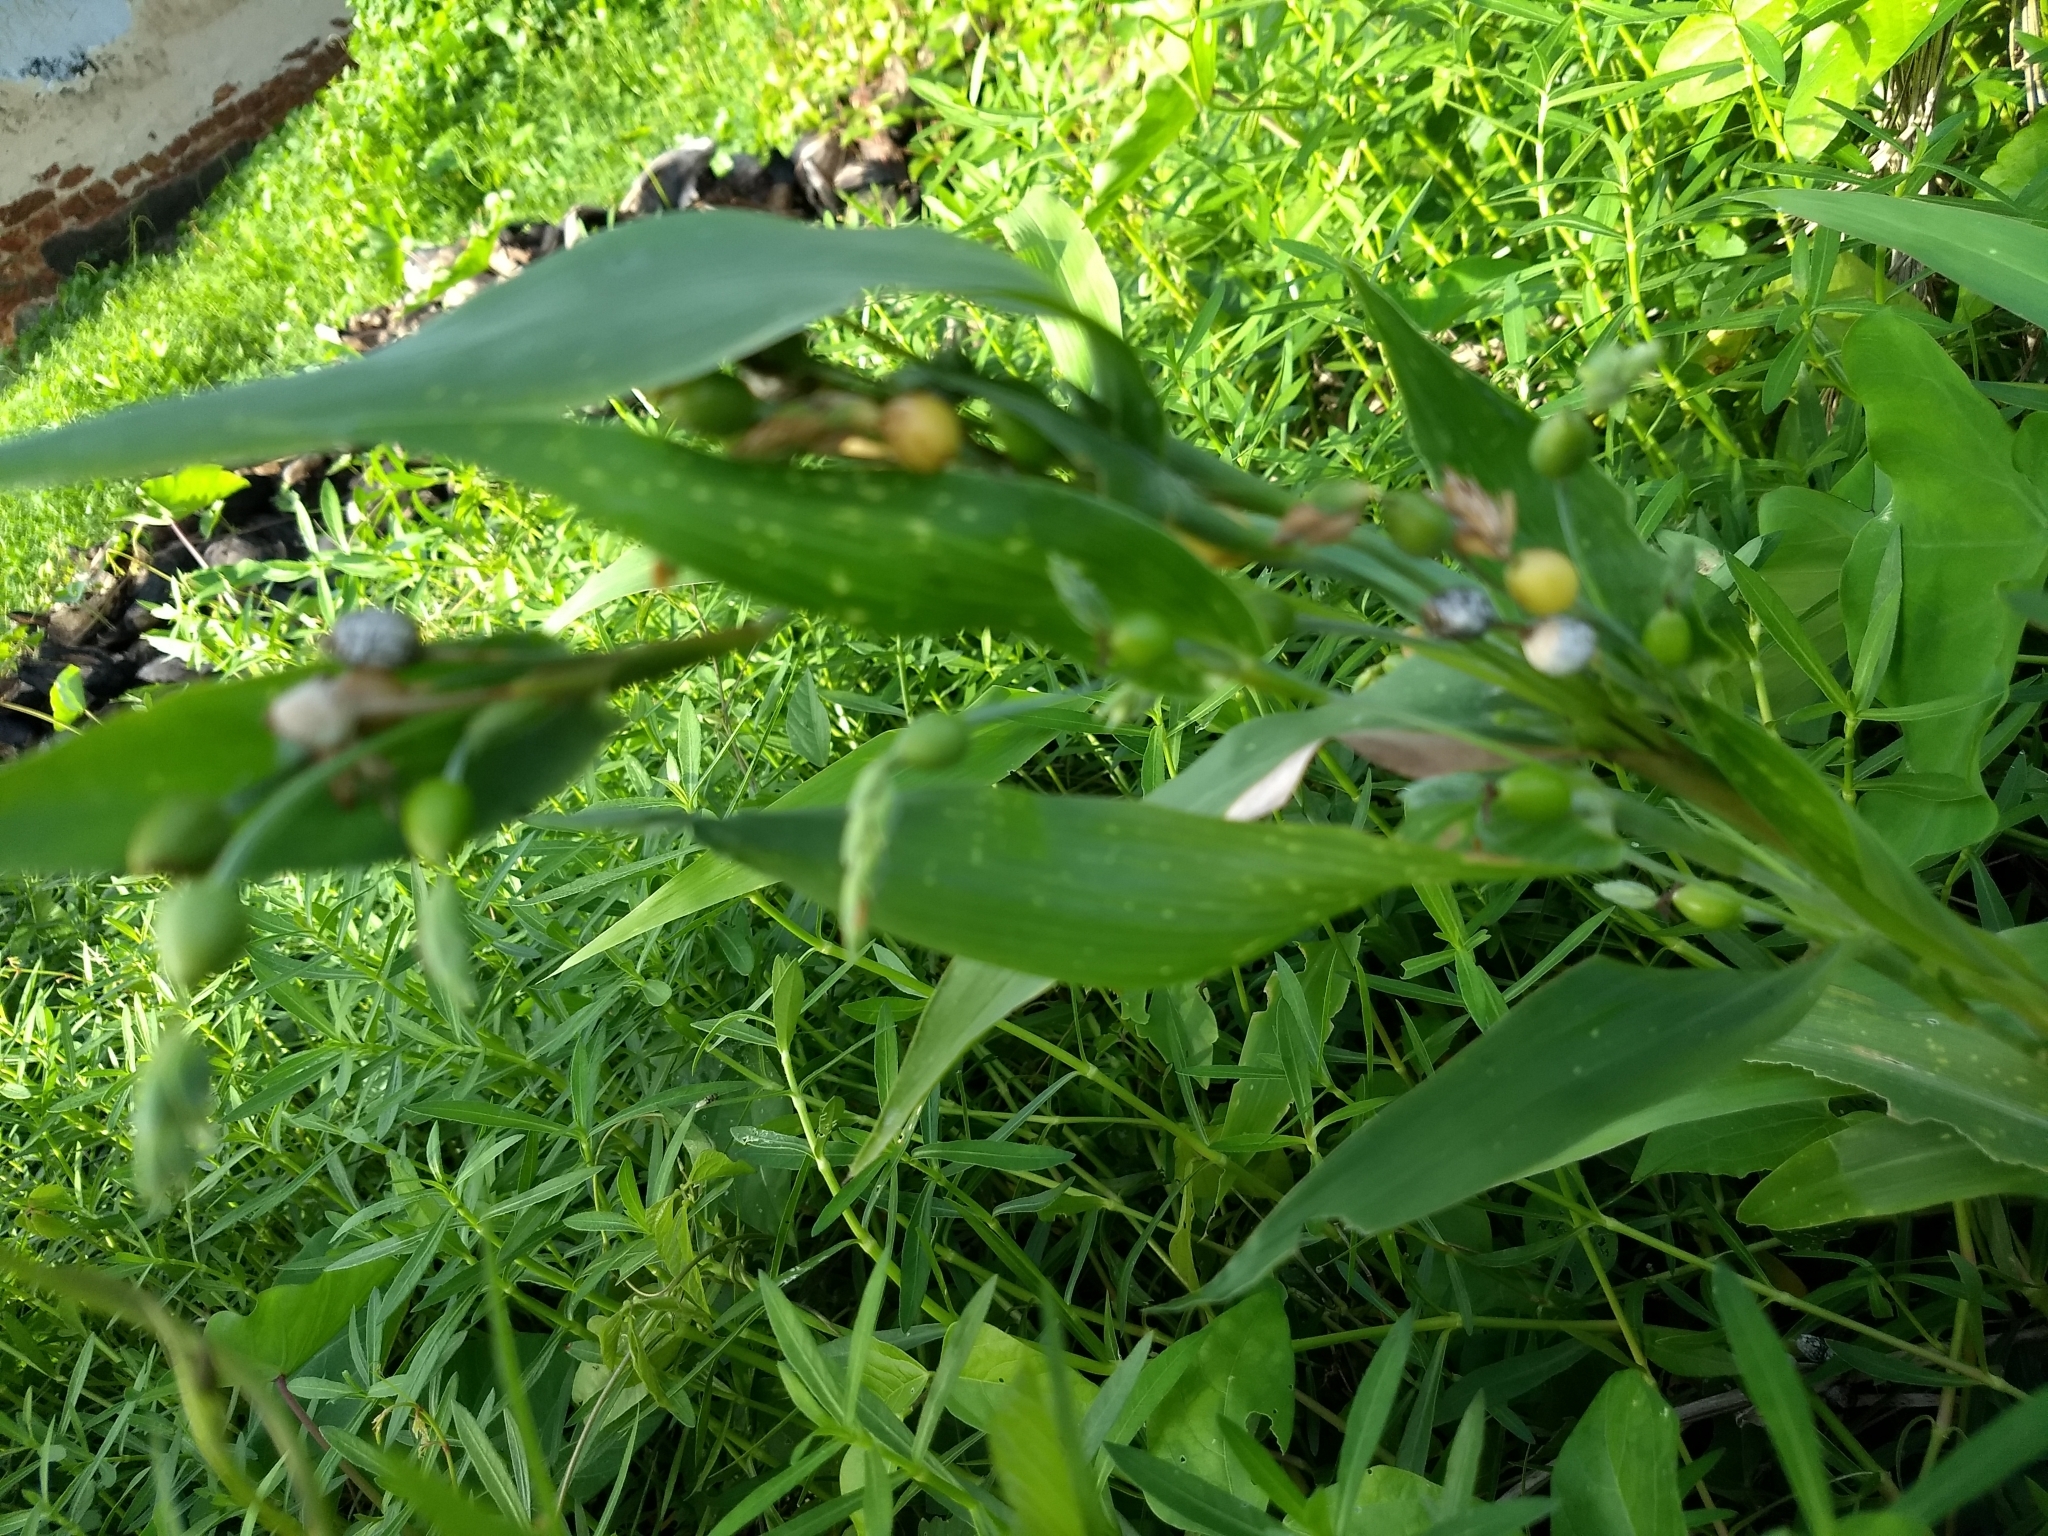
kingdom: Plantae
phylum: Tracheophyta
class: Liliopsida
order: Poales
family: Poaceae
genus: Coix
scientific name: Coix lacryma-jobi
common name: Job's tears
